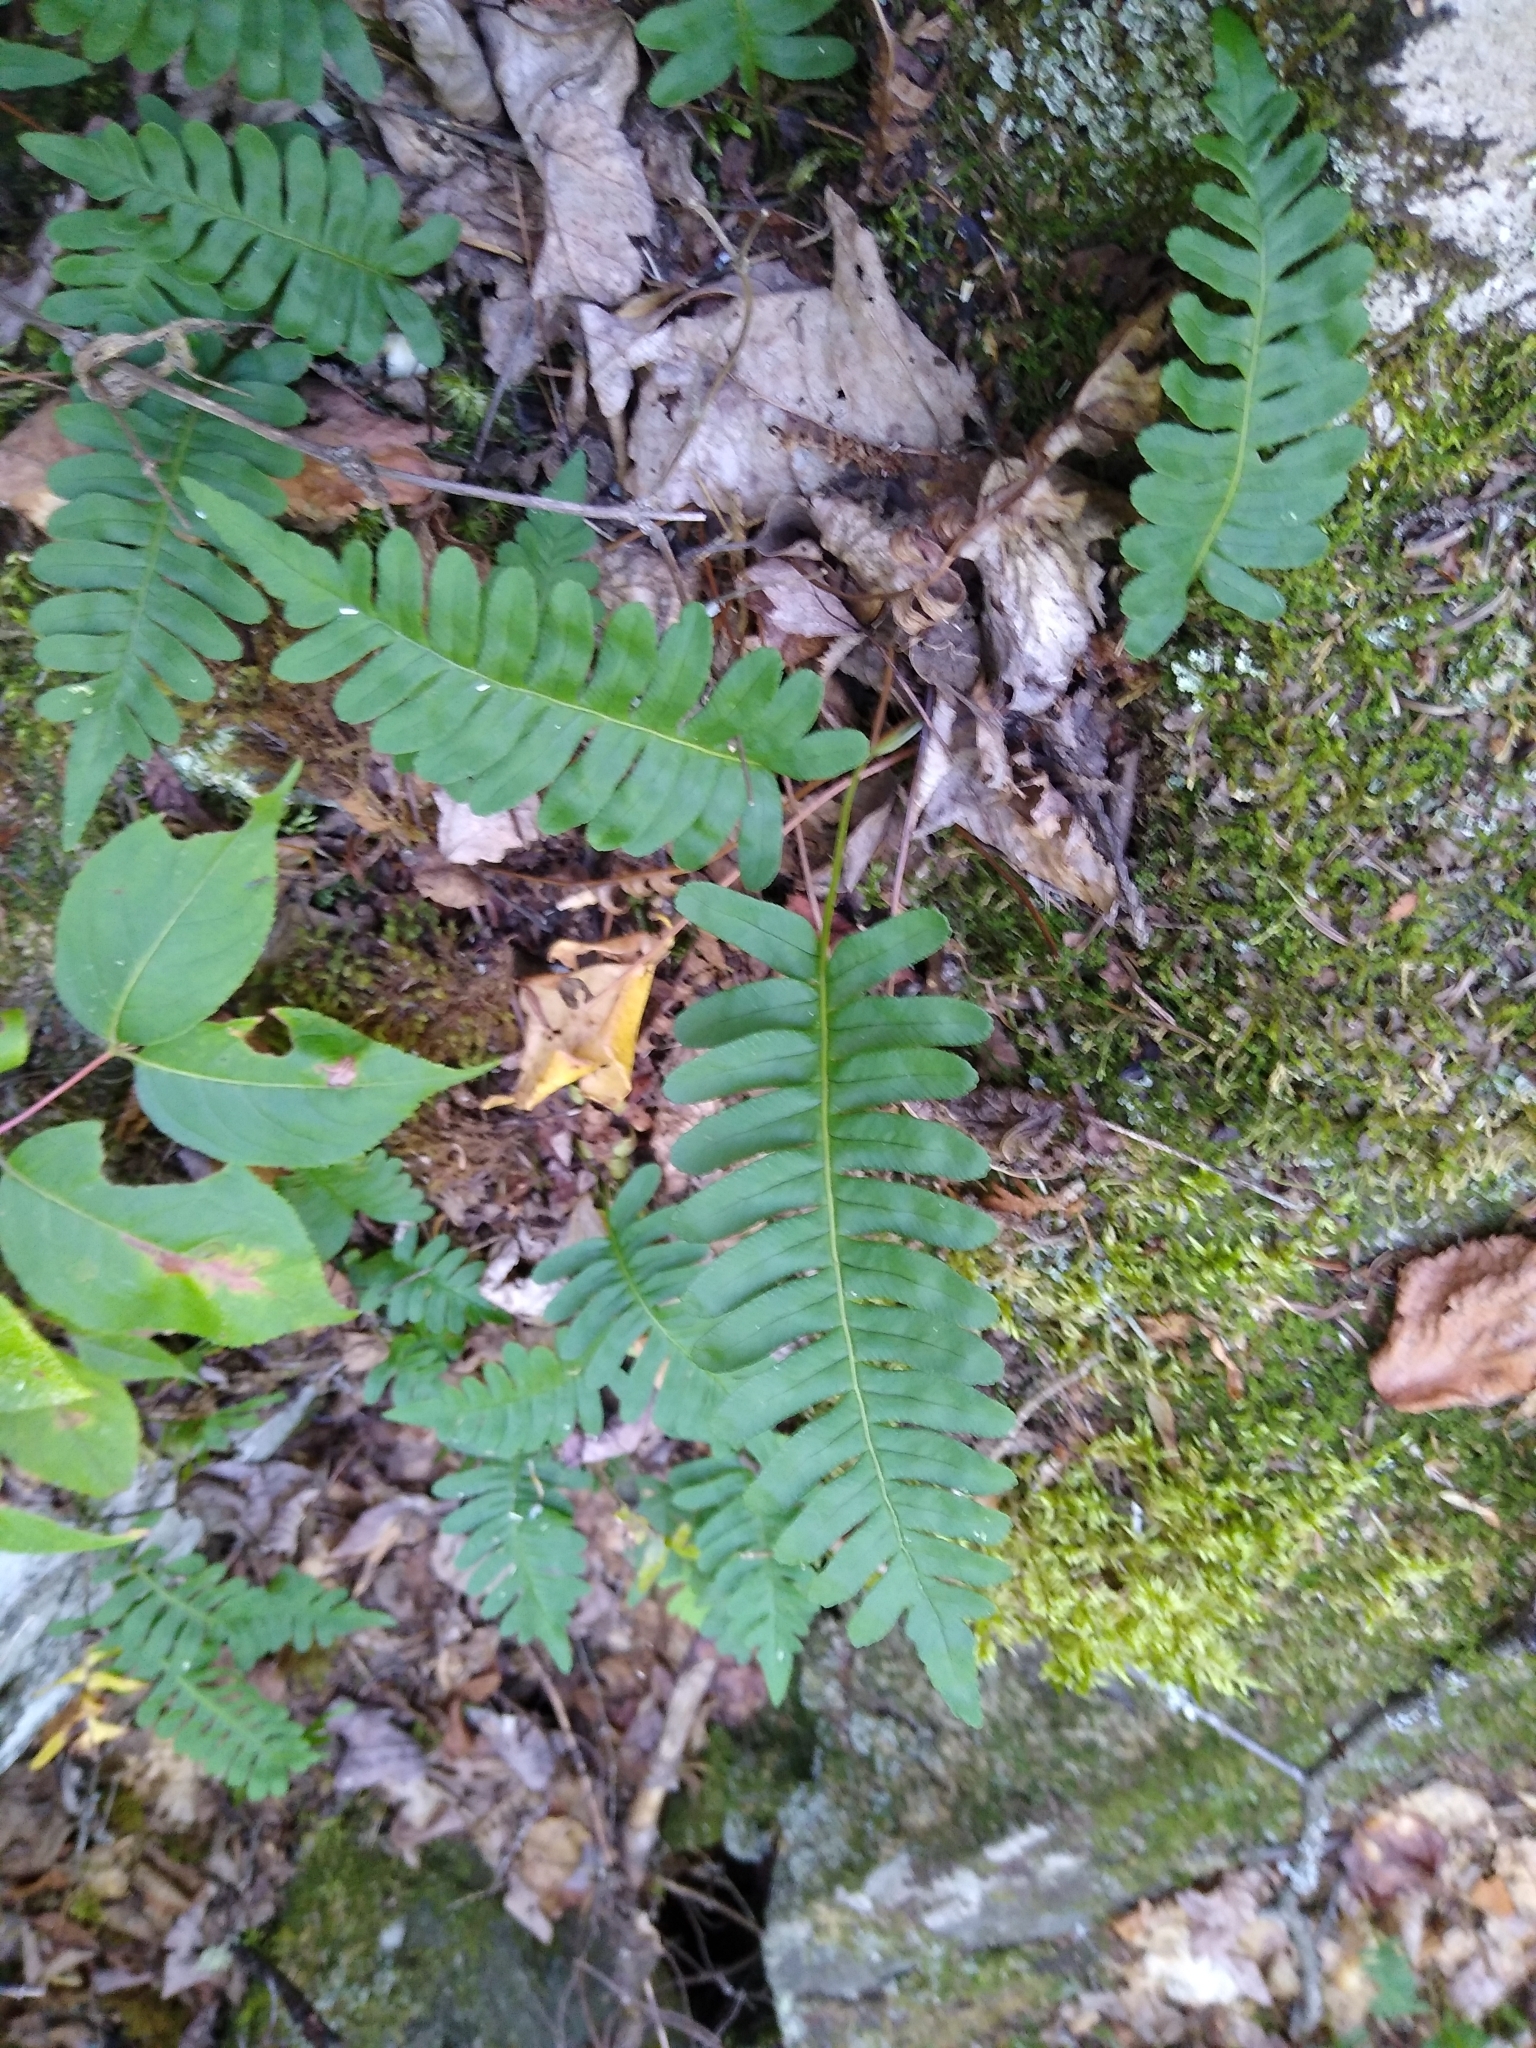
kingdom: Plantae
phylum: Tracheophyta
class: Polypodiopsida
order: Polypodiales
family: Polypodiaceae
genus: Polypodium
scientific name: Polypodium virginianum
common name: American wall fern
